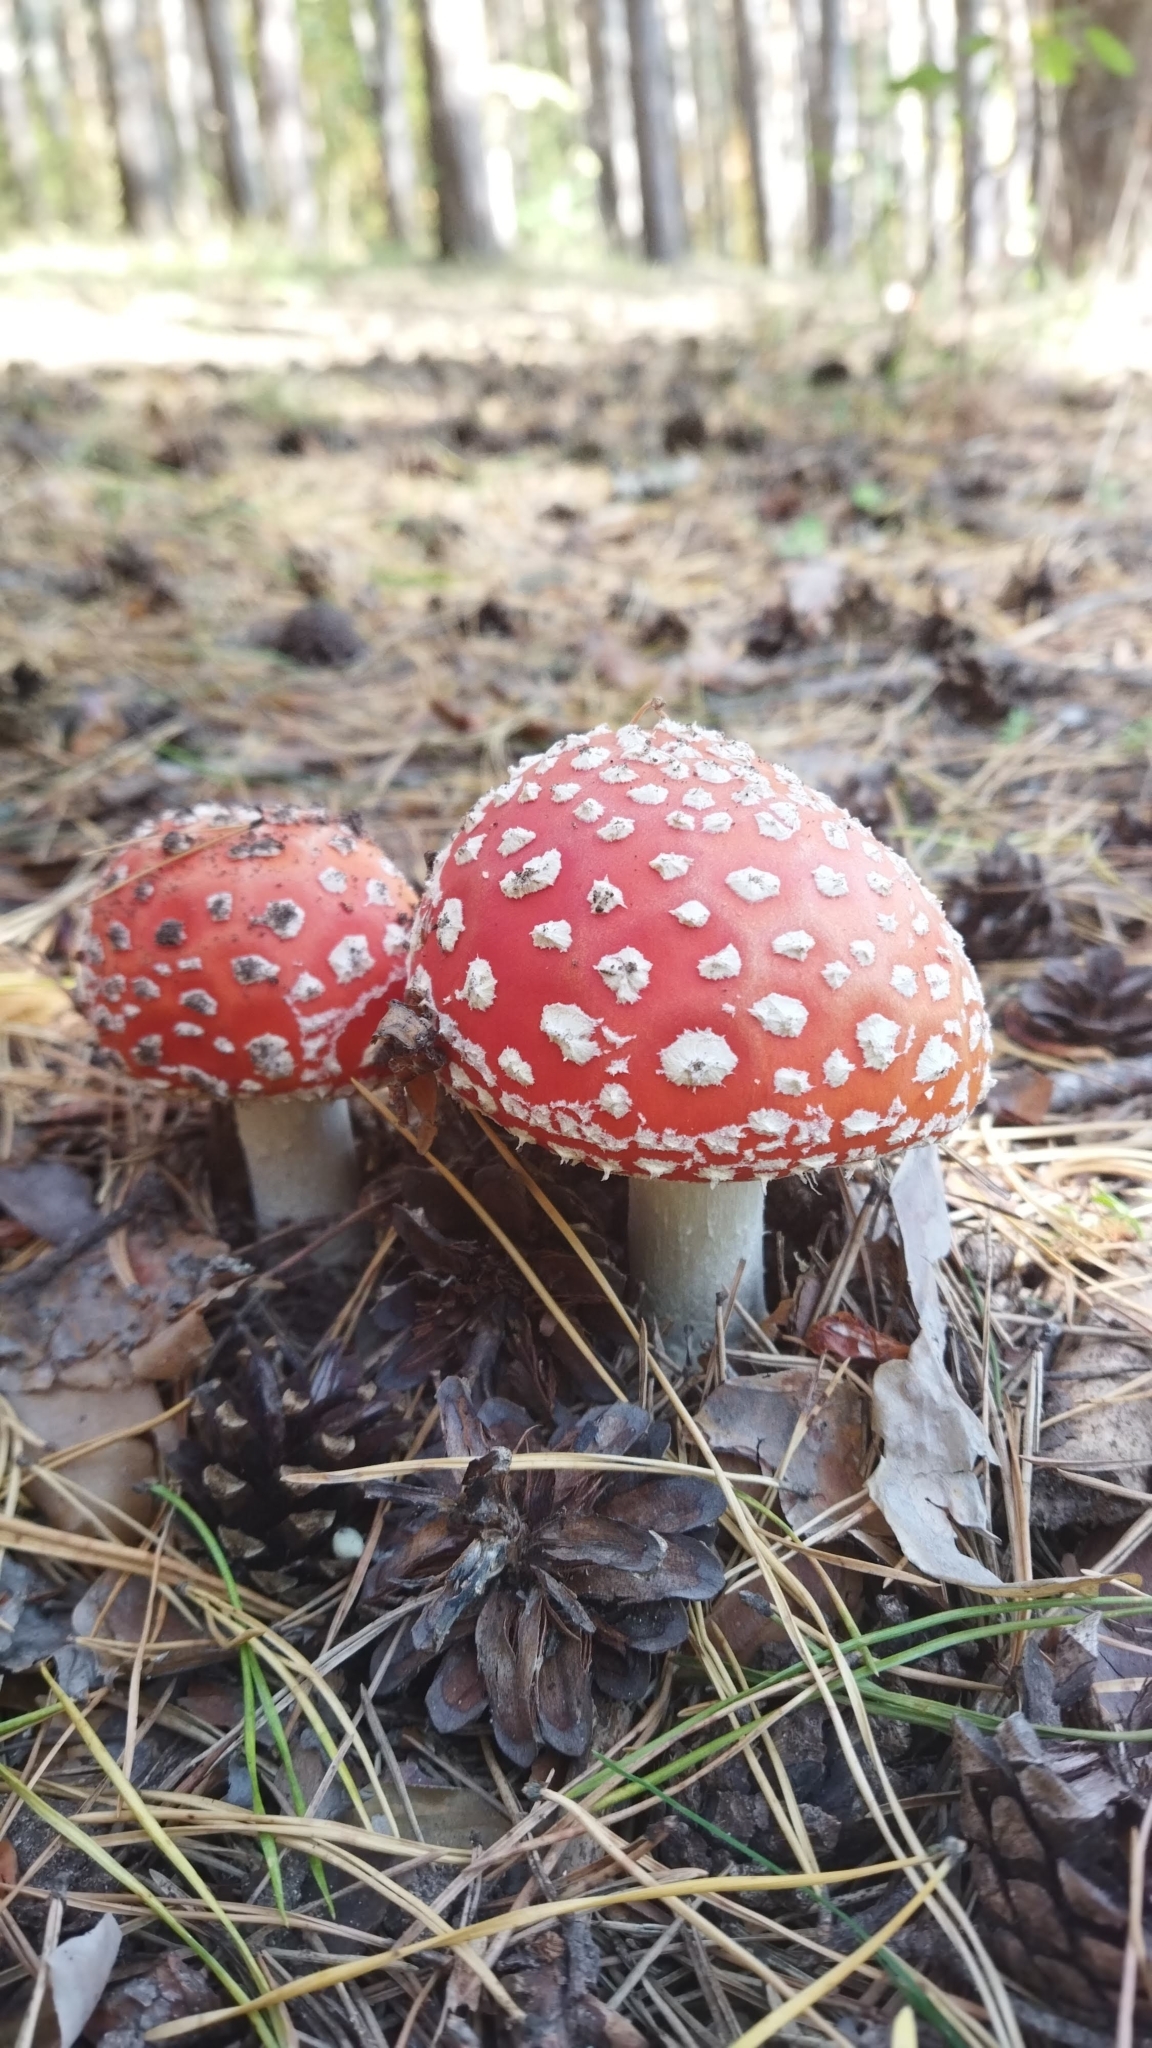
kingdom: Fungi
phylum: Basidiomycota
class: Agaricomycetes
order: Agaricales
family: Amanitaceae
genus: Amanita
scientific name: Amanita muscaria
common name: Fly agaric
